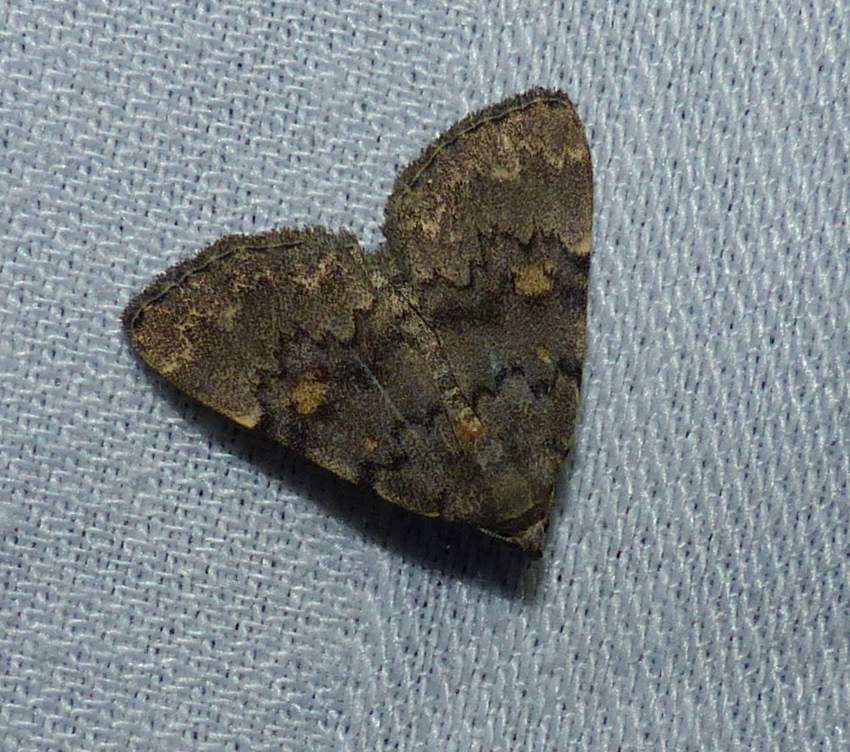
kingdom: Animalia
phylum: Arthropoda
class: Insecta
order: Lepidoptera
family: Erebidae
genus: Idia
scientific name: Idia aemula
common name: Common idia moth
